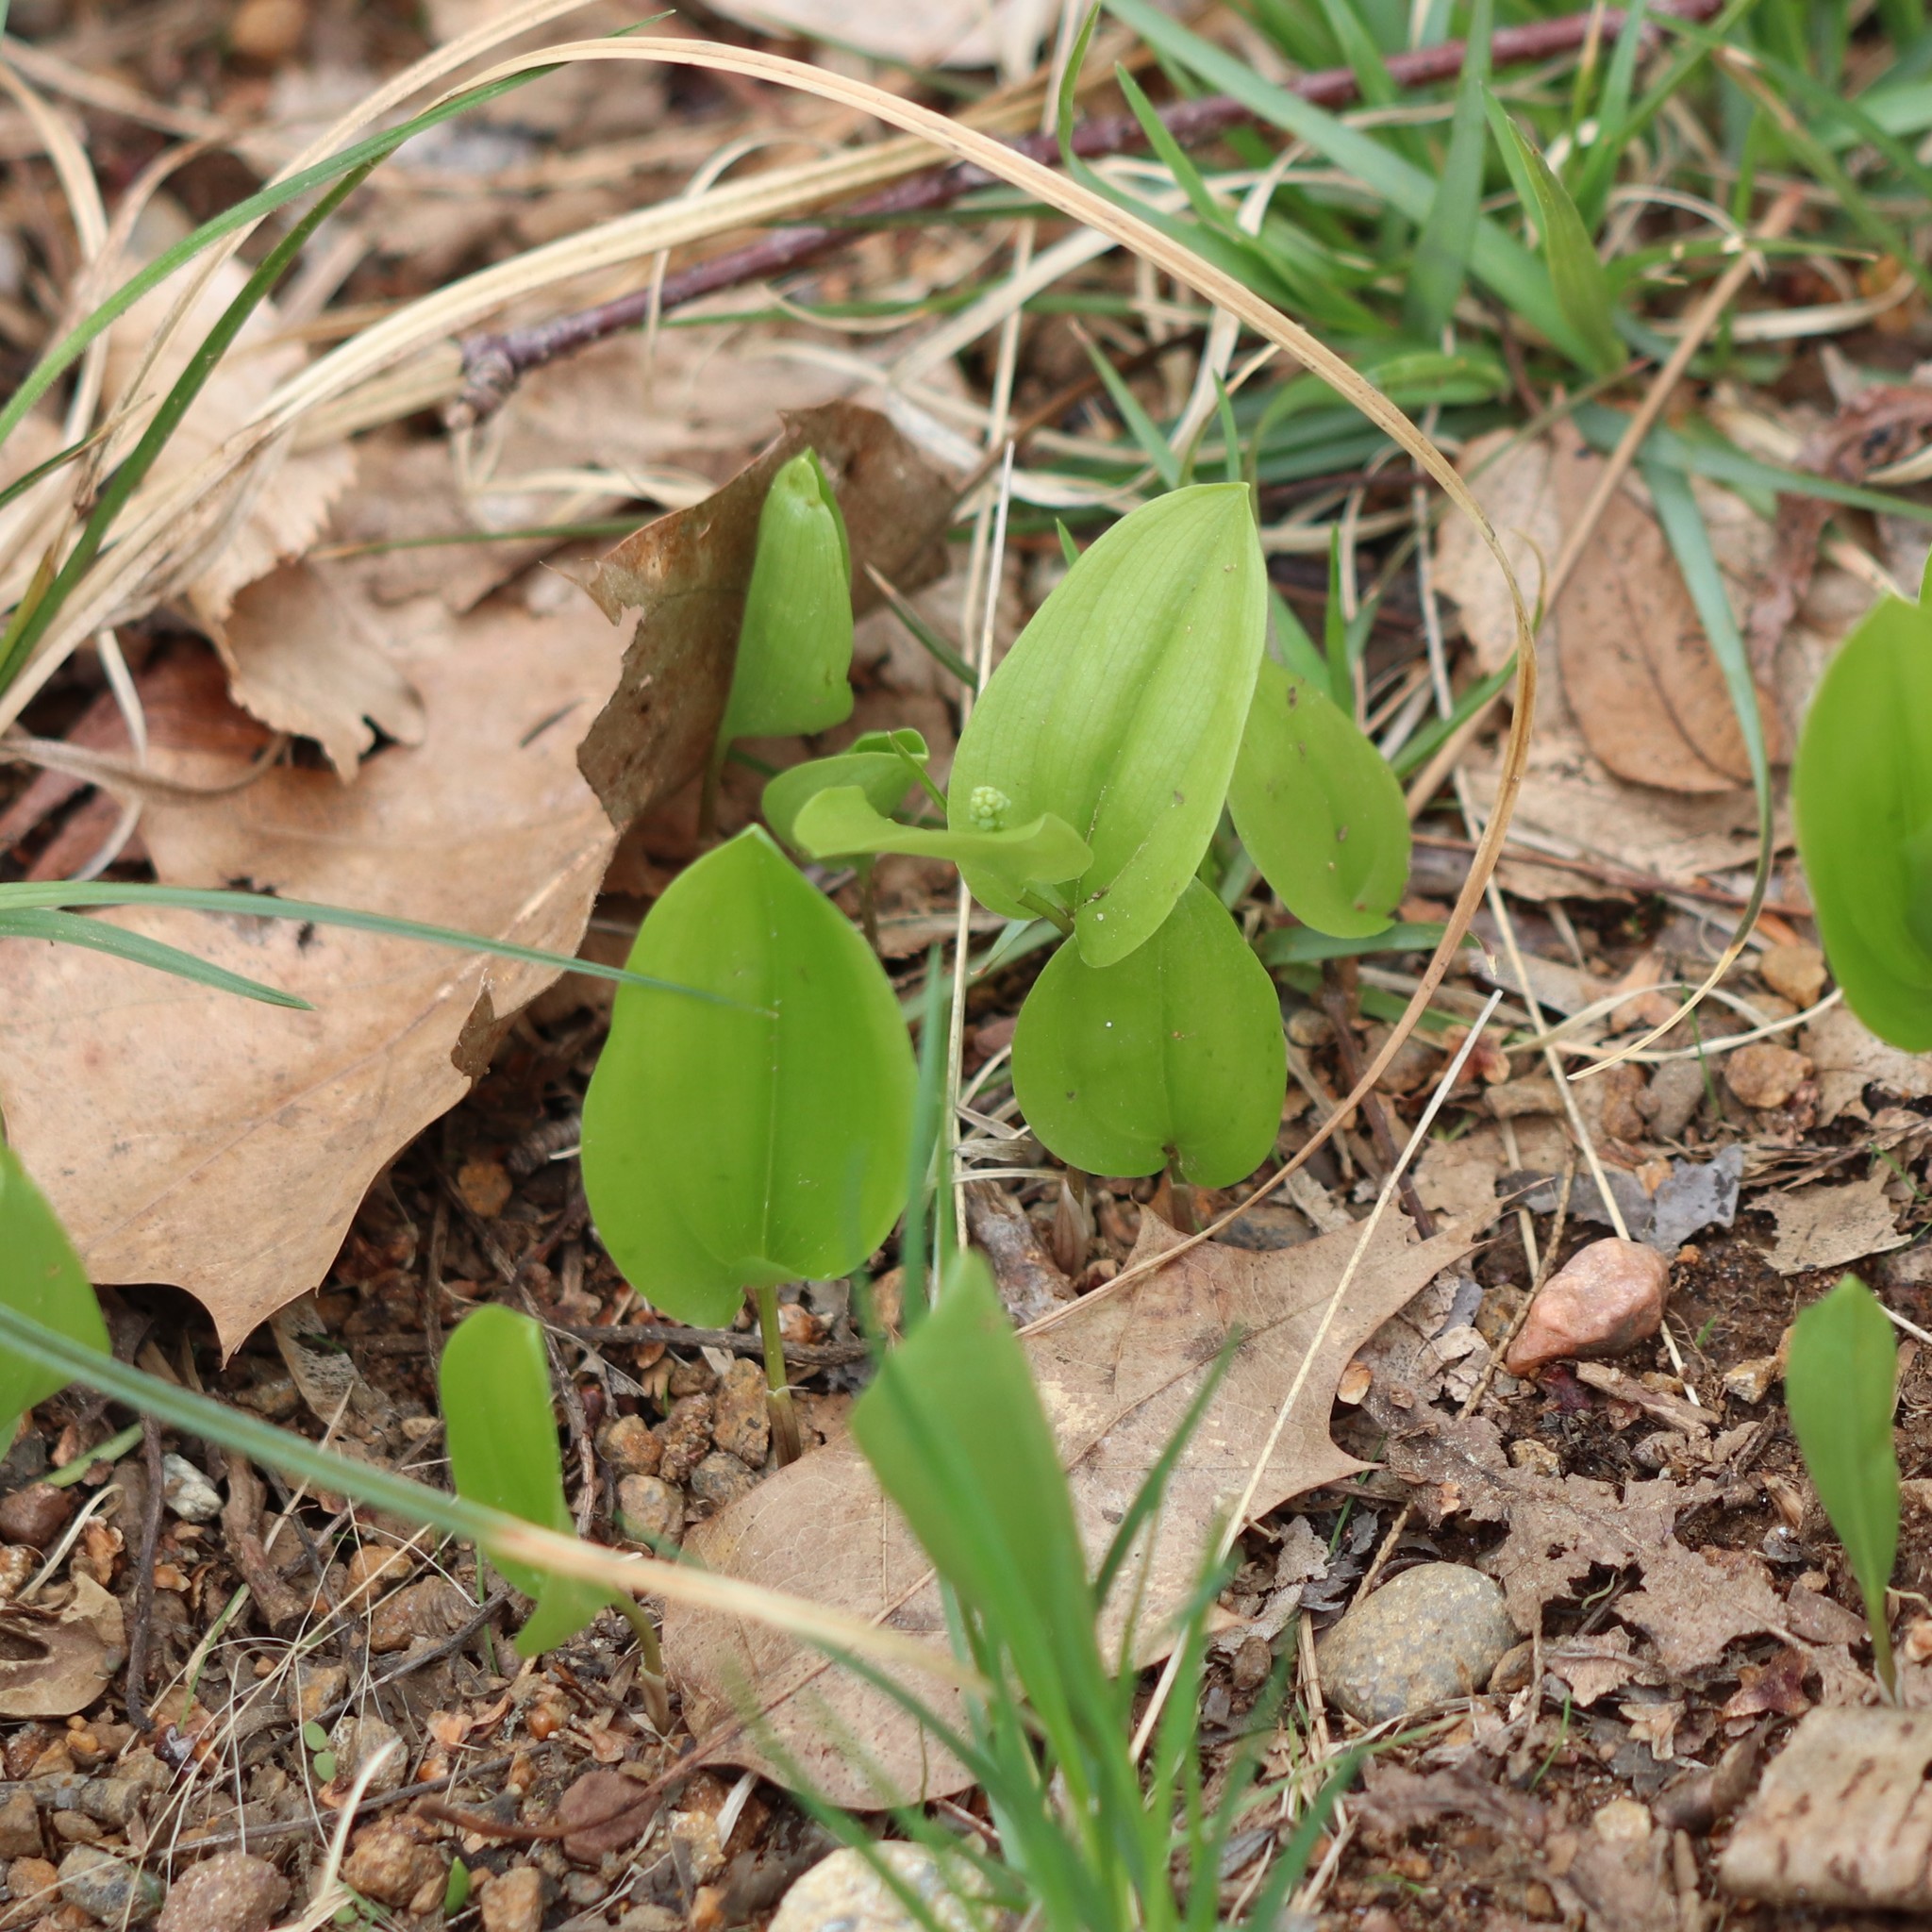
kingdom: Plantae
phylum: Tracheophyta
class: Liliopsida
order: Asparagales
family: Asparagaceae
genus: Maianthemum
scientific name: Maianthemum canadense
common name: False lily-of-the-valley
